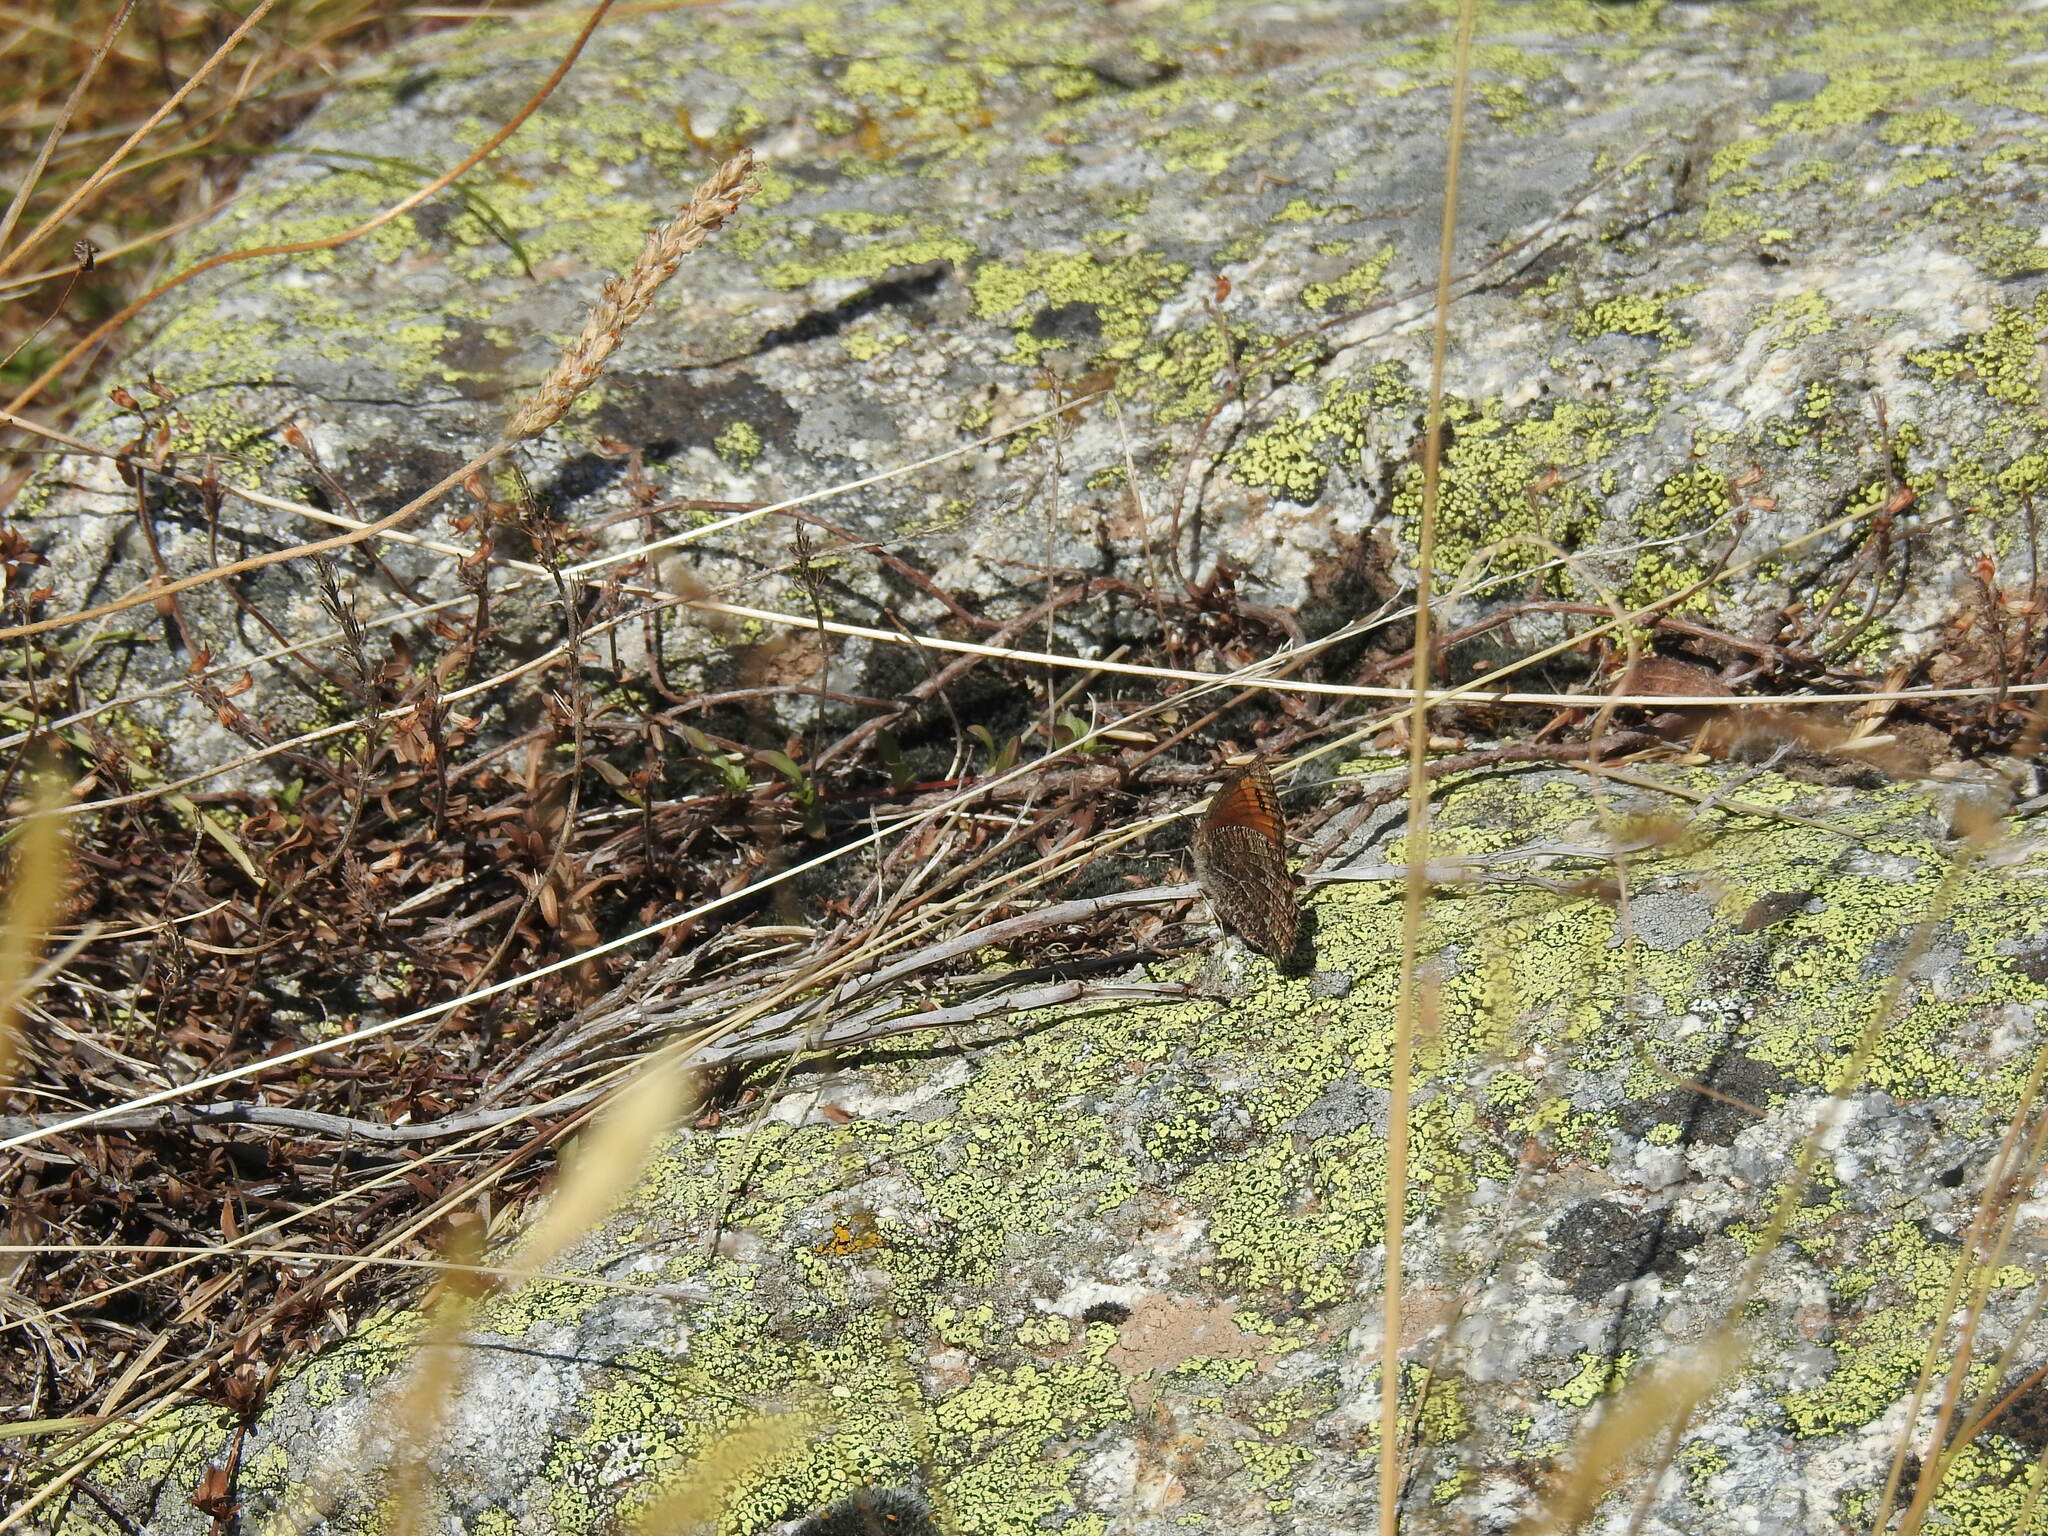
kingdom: Animalia
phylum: Arthropoda
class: Insecta
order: Lepidoptera
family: Nymphalidae
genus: Erebia
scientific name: Erebia montanus
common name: Marbled ringlet
